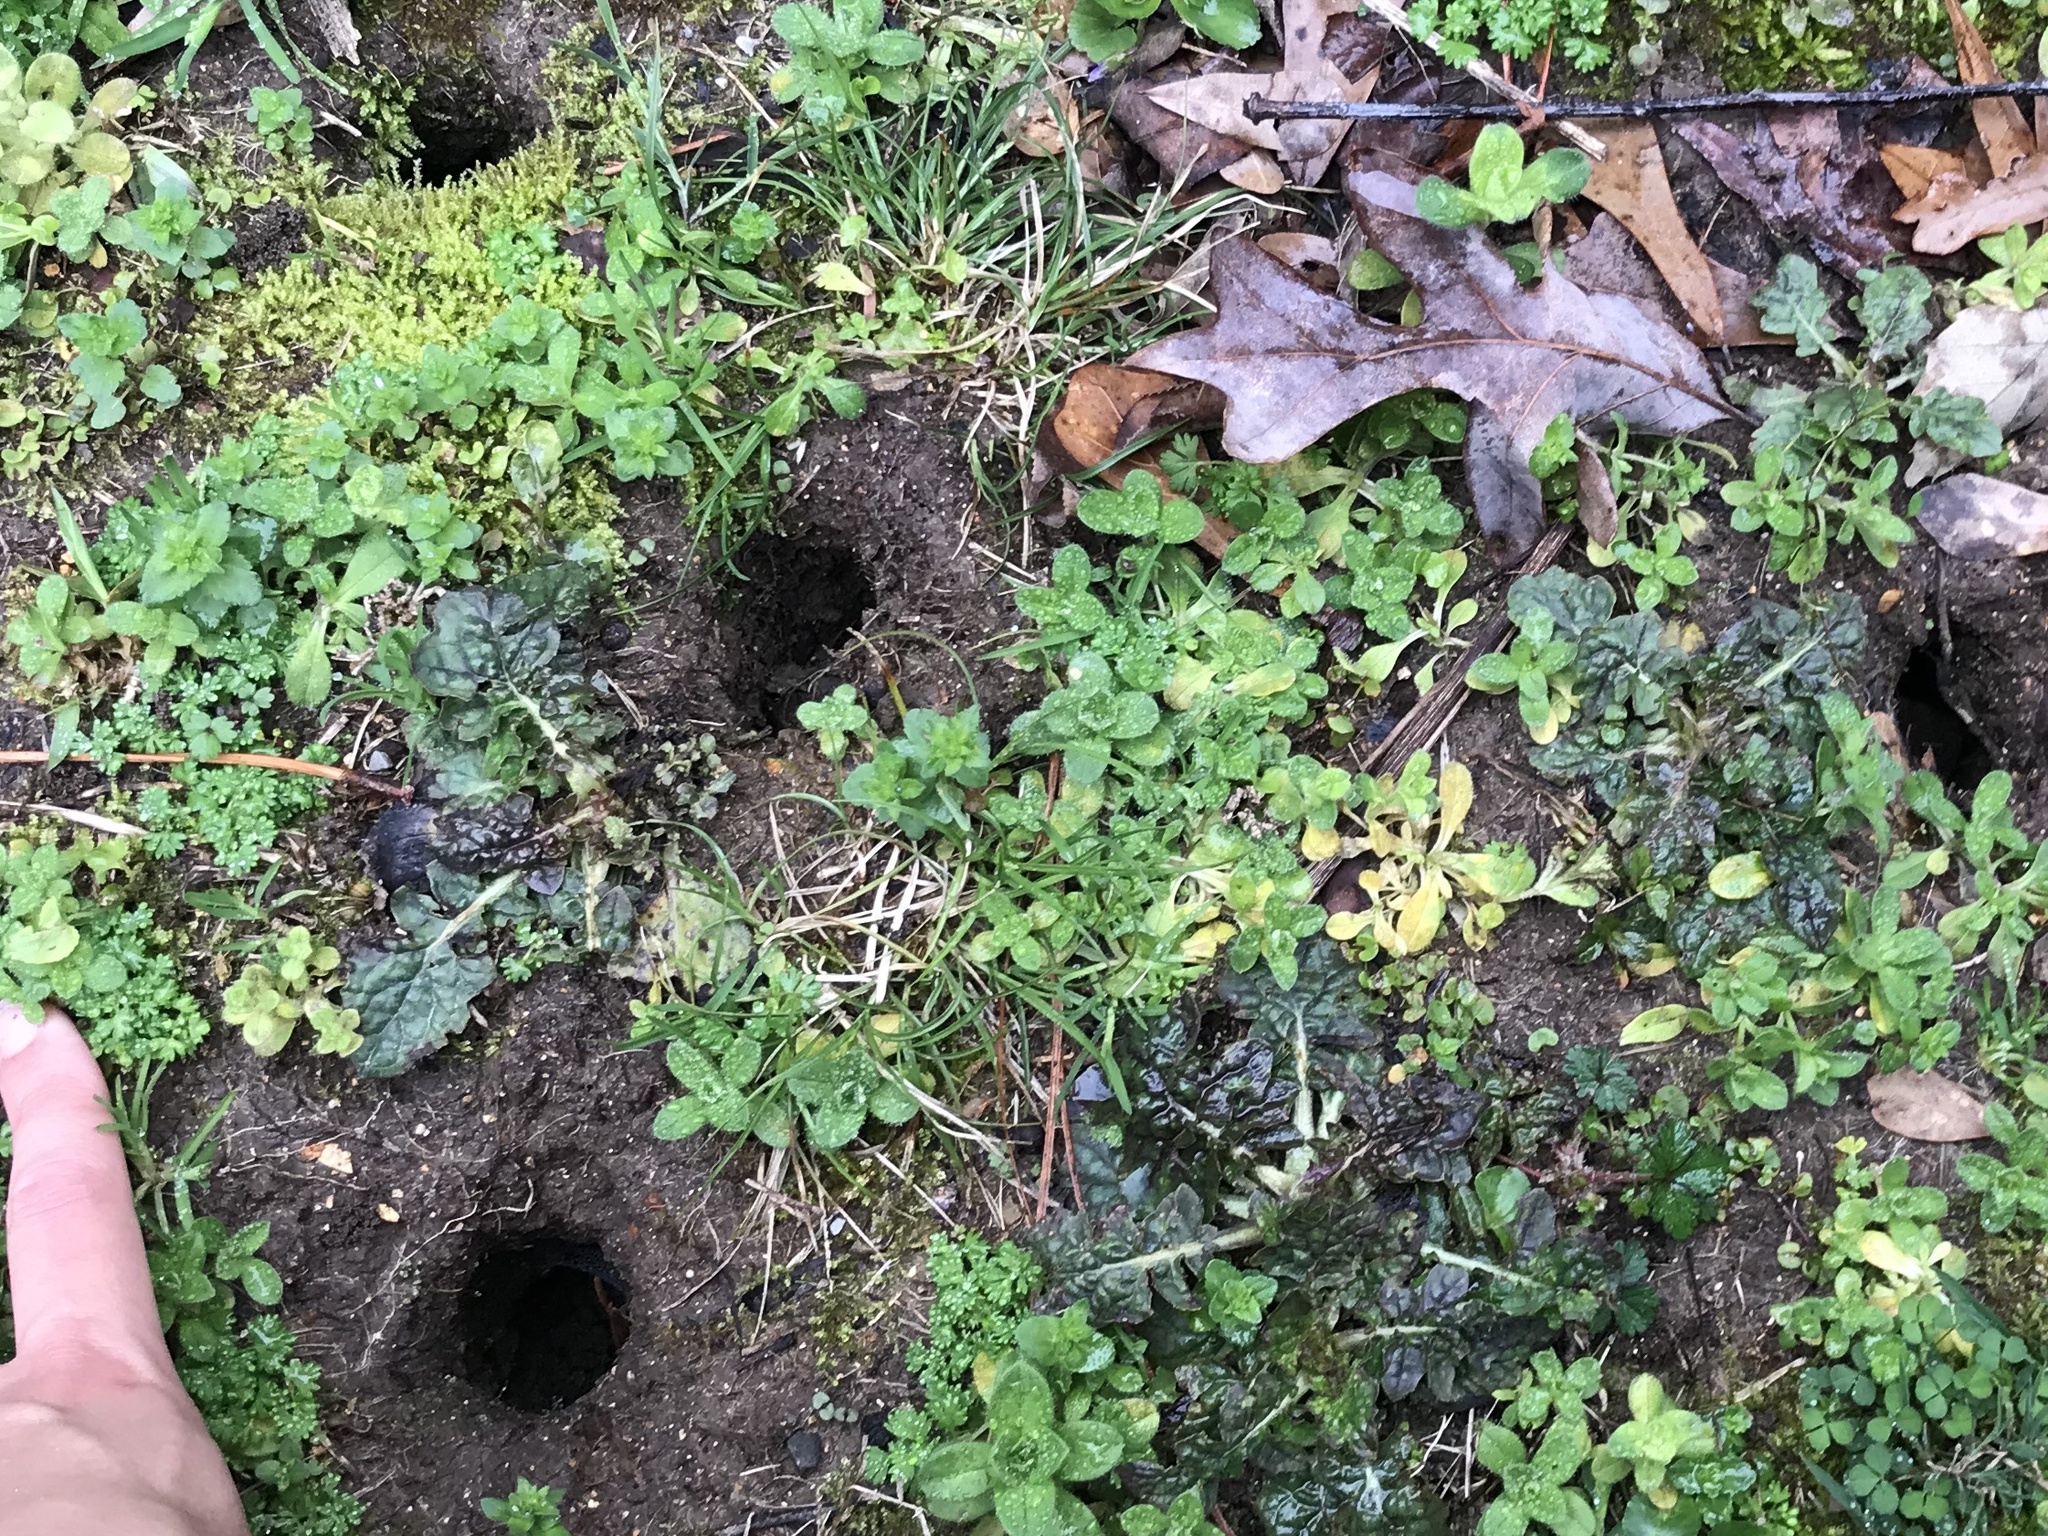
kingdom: Animalia
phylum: Chordata
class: Mammalia
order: Rodentia
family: Sciuridae
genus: Tamias
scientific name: Tamias striatus
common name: Eastern chipmunk
